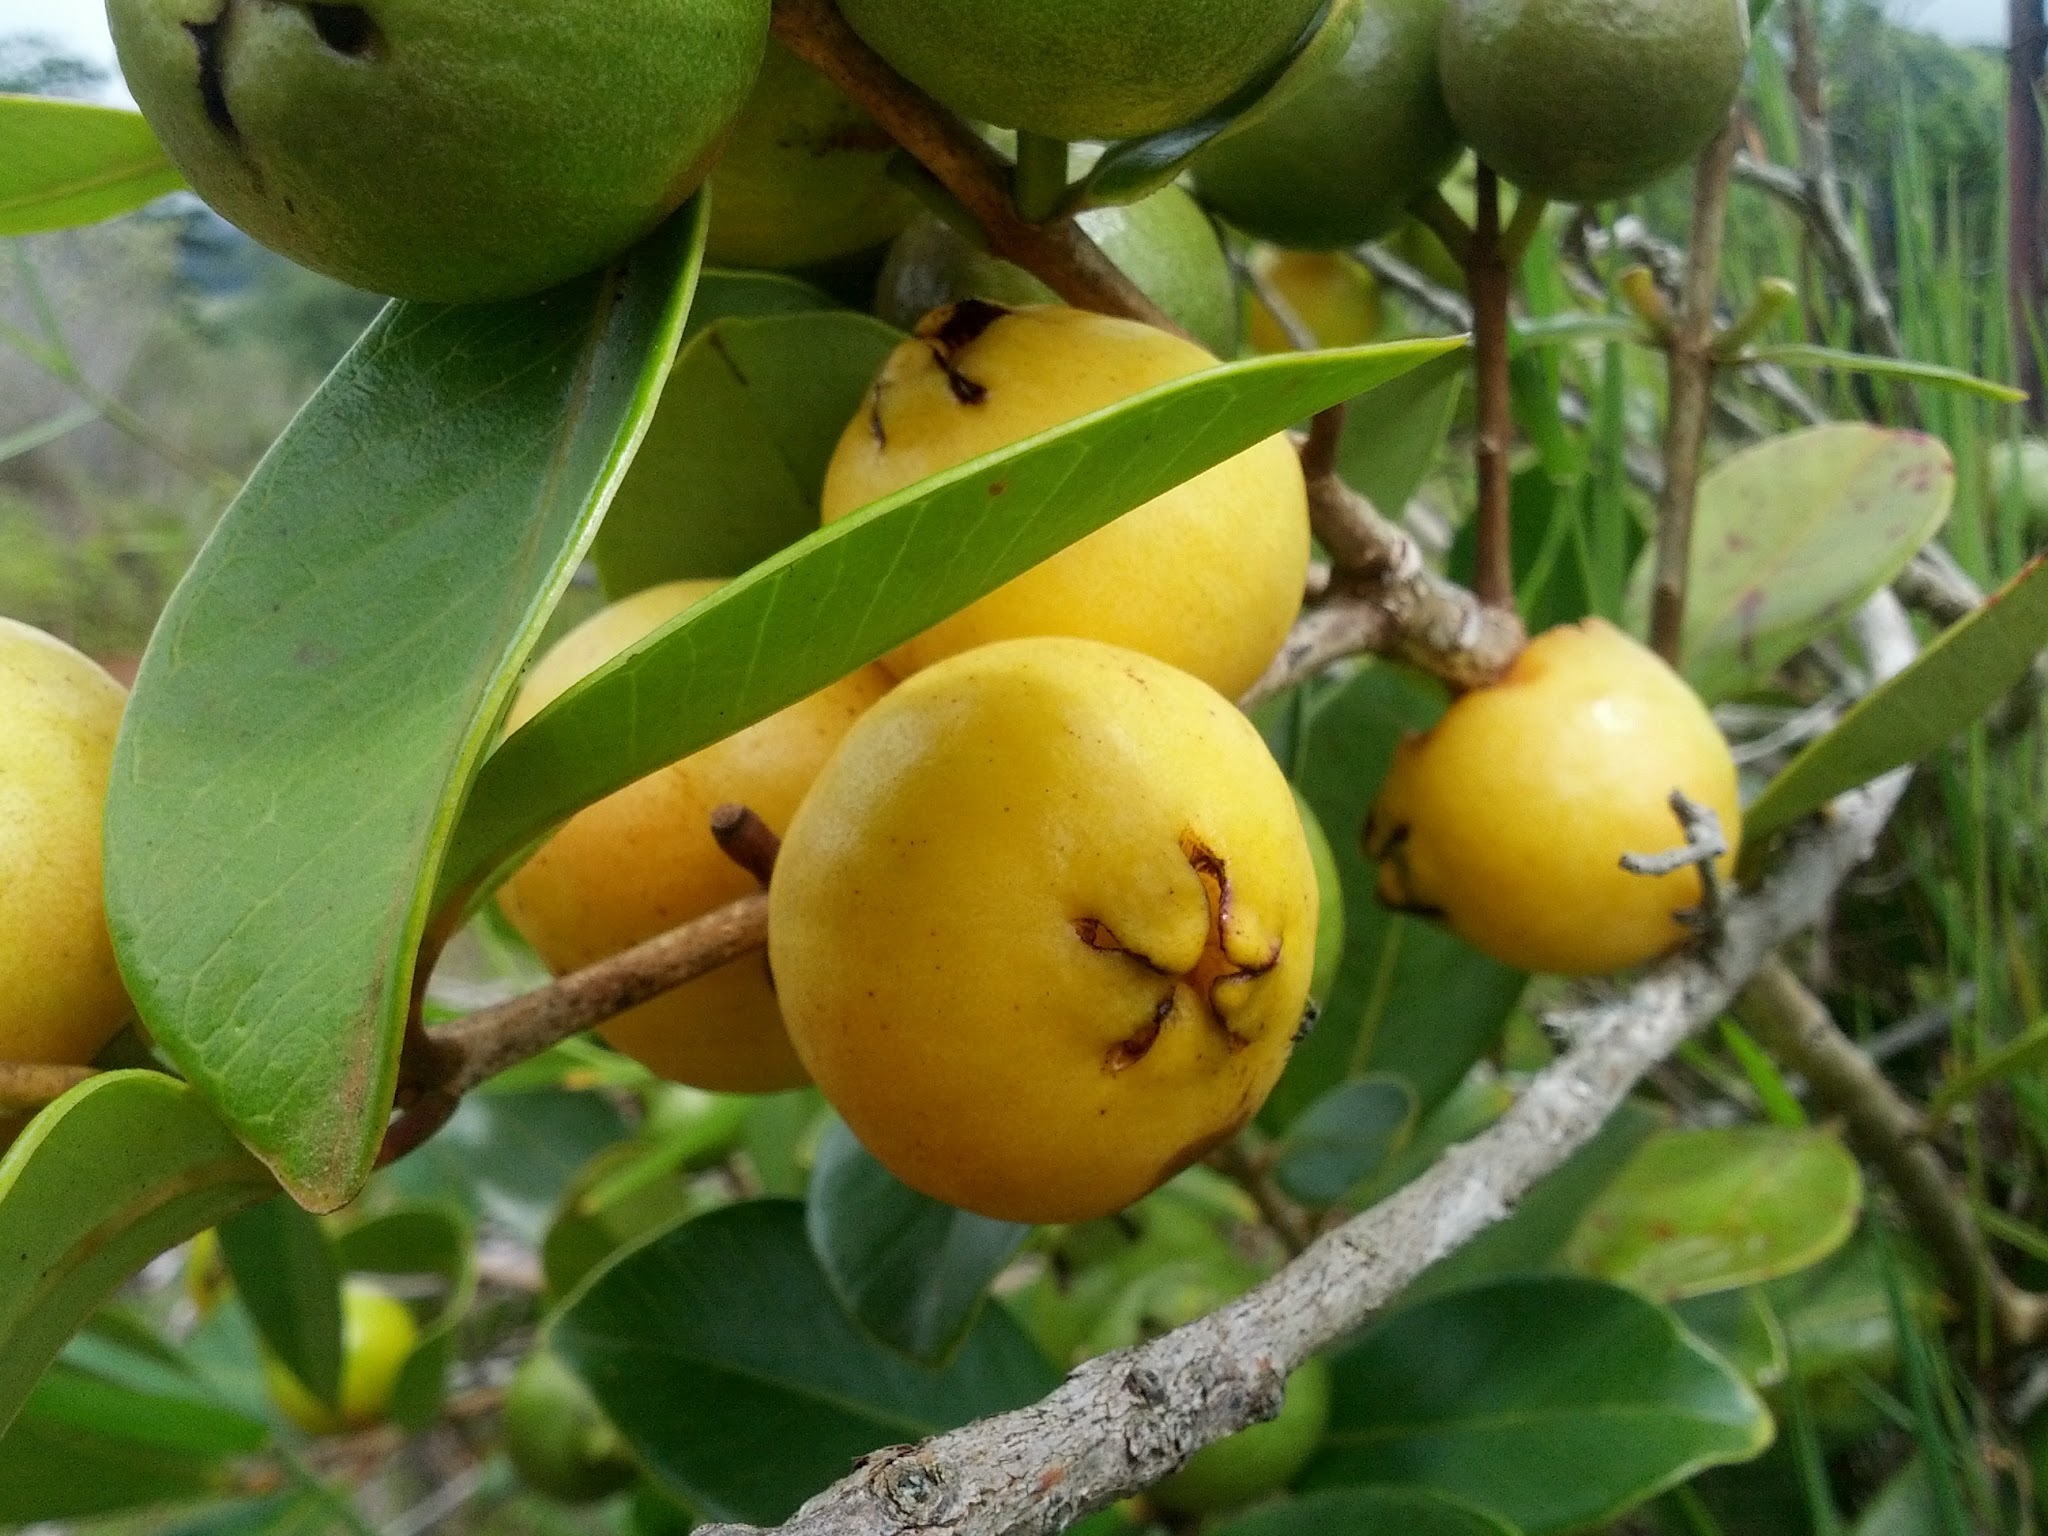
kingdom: Plantae
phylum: Tracheophyta
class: Magnoliopsida
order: Myrtales
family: Myrtaceae
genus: Psidium
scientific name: Psidium cattleianum
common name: Strawberry guava
